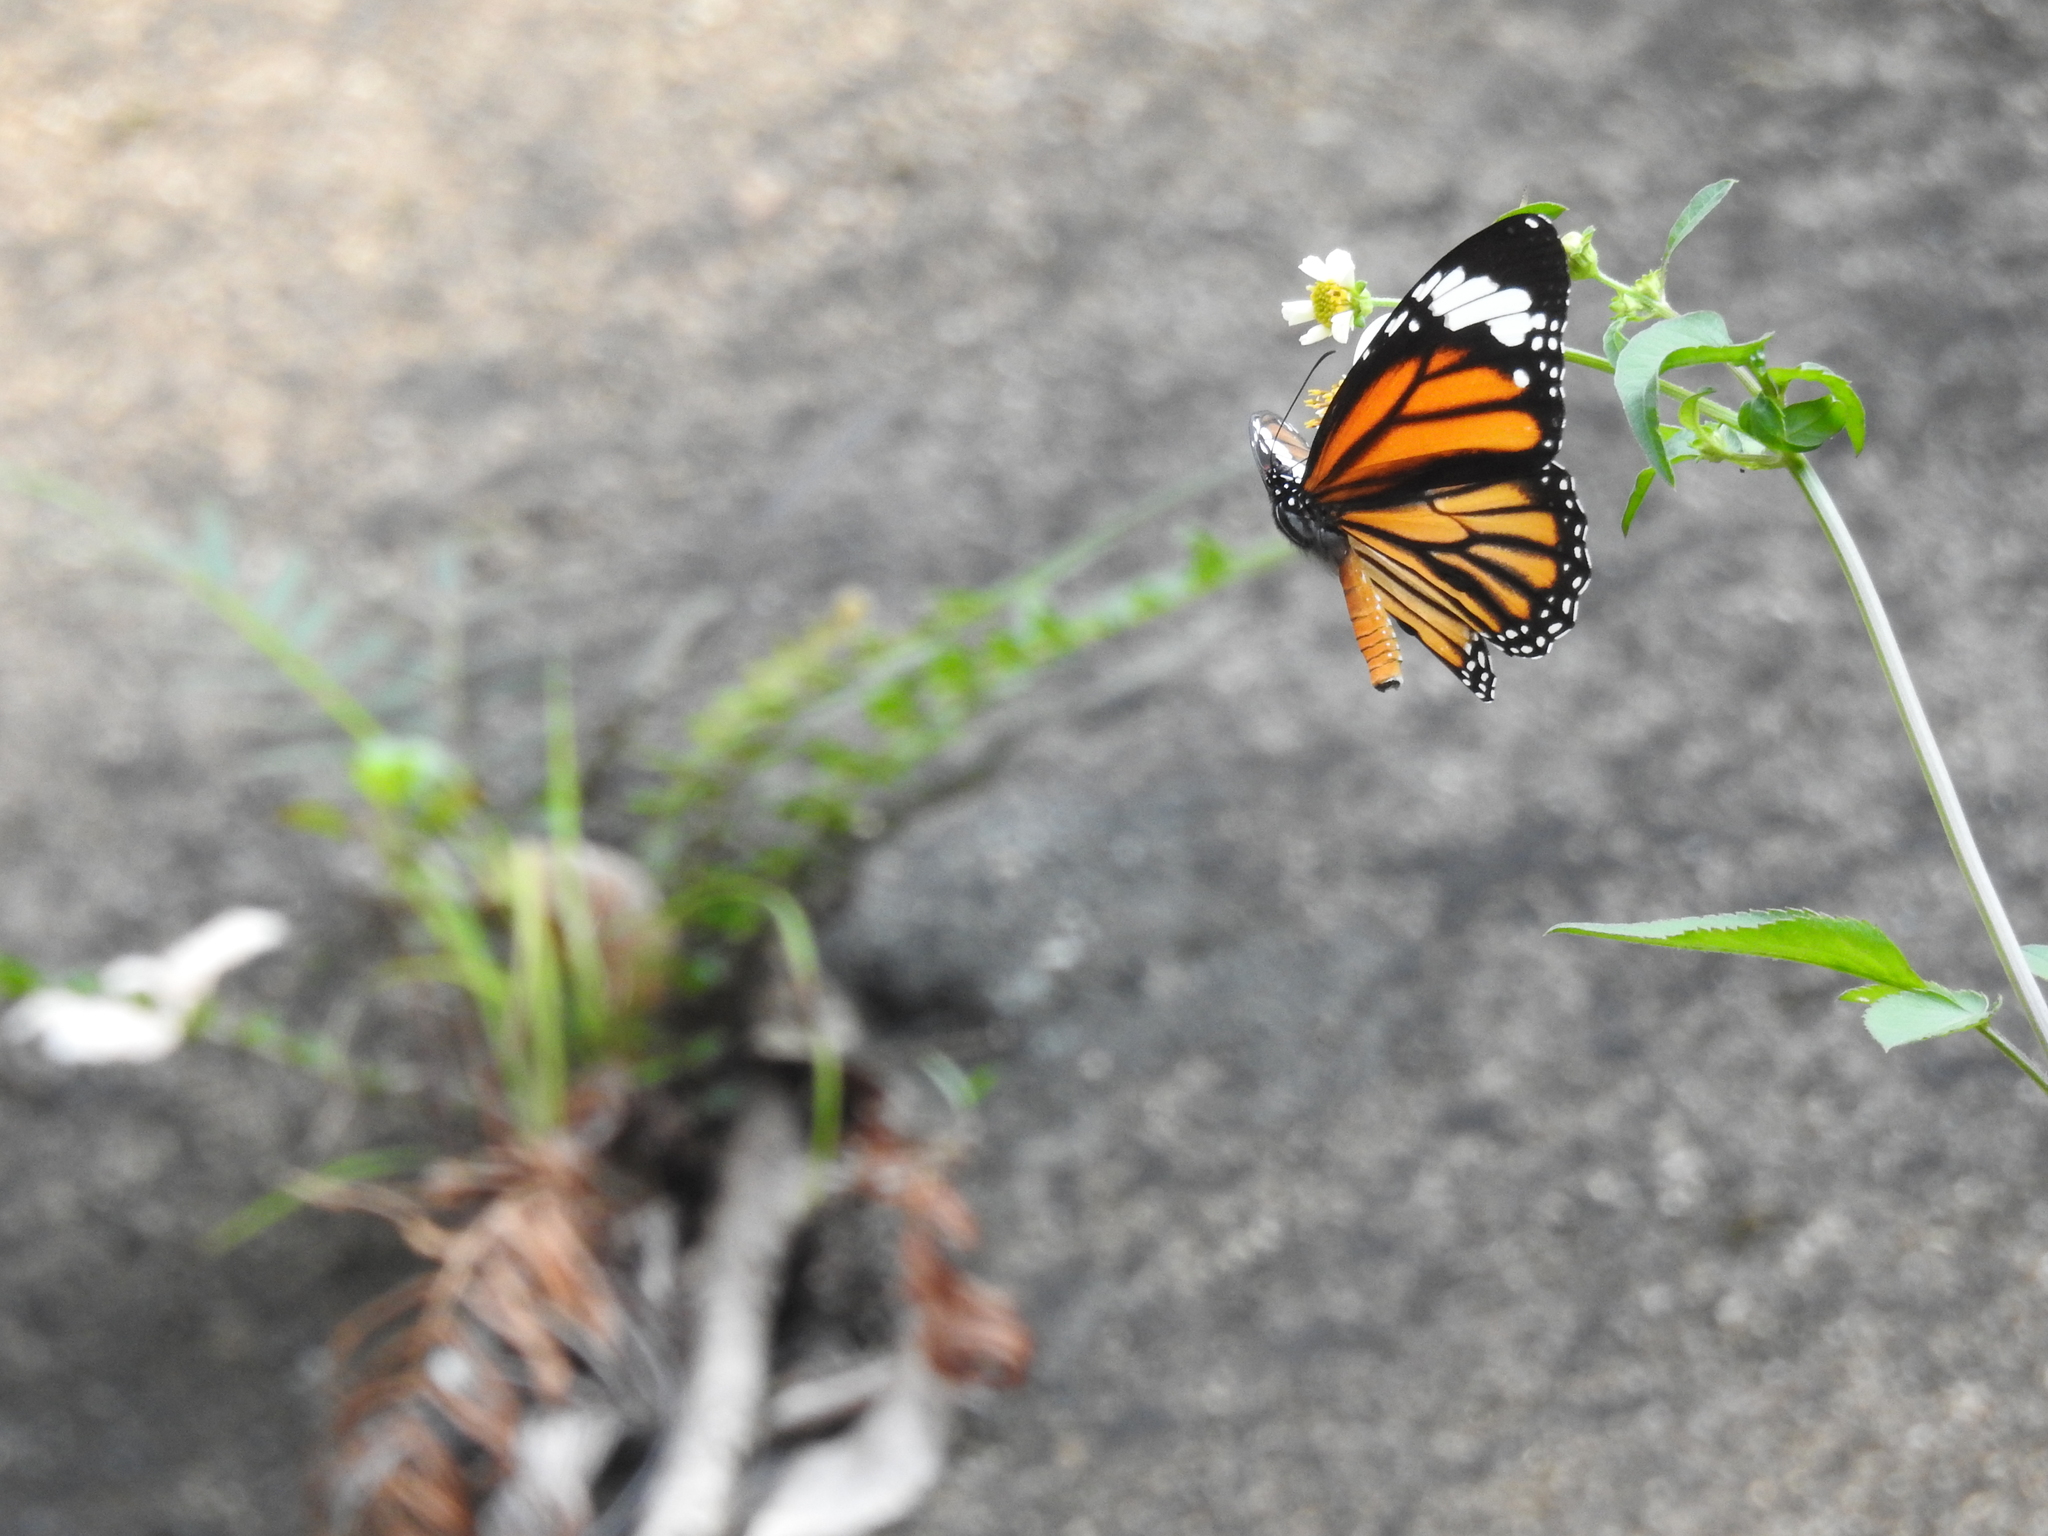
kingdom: Animalia
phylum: Arthropoda
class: Insecta
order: Lepidoptera
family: Nymphalidae
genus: Danaus
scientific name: Danaus genutia
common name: Common tiger butterfly
